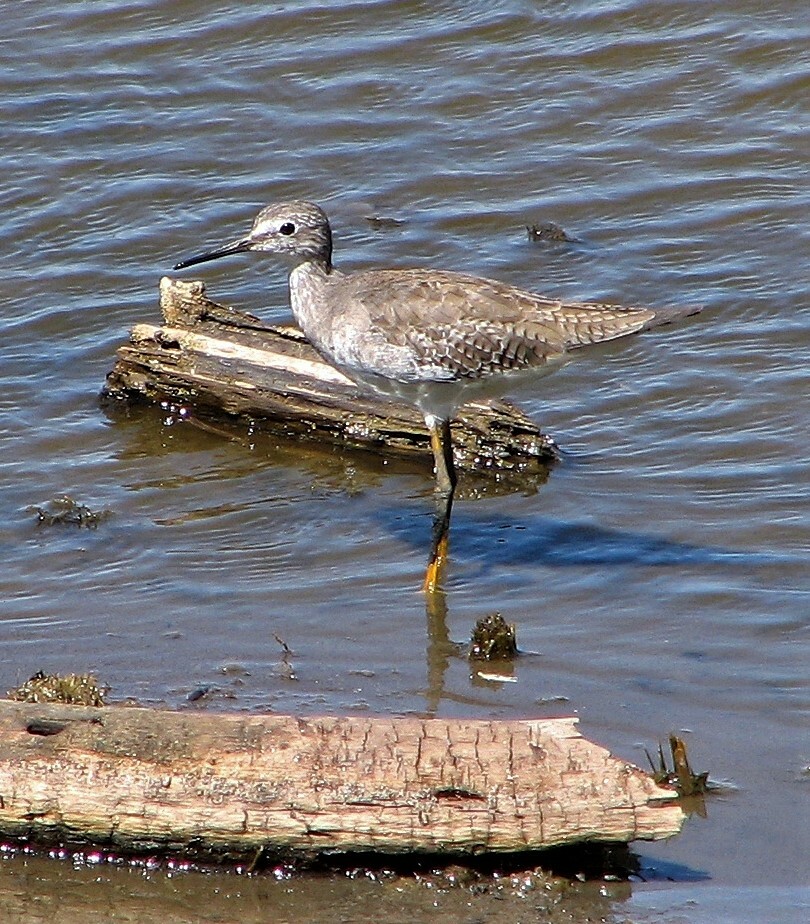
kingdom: Animalia
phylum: Chordata
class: Aves
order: Charadriiformes
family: Scolopacidae
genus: Tringa
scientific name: Tringa flavipes
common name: Lesser yellowlegs
